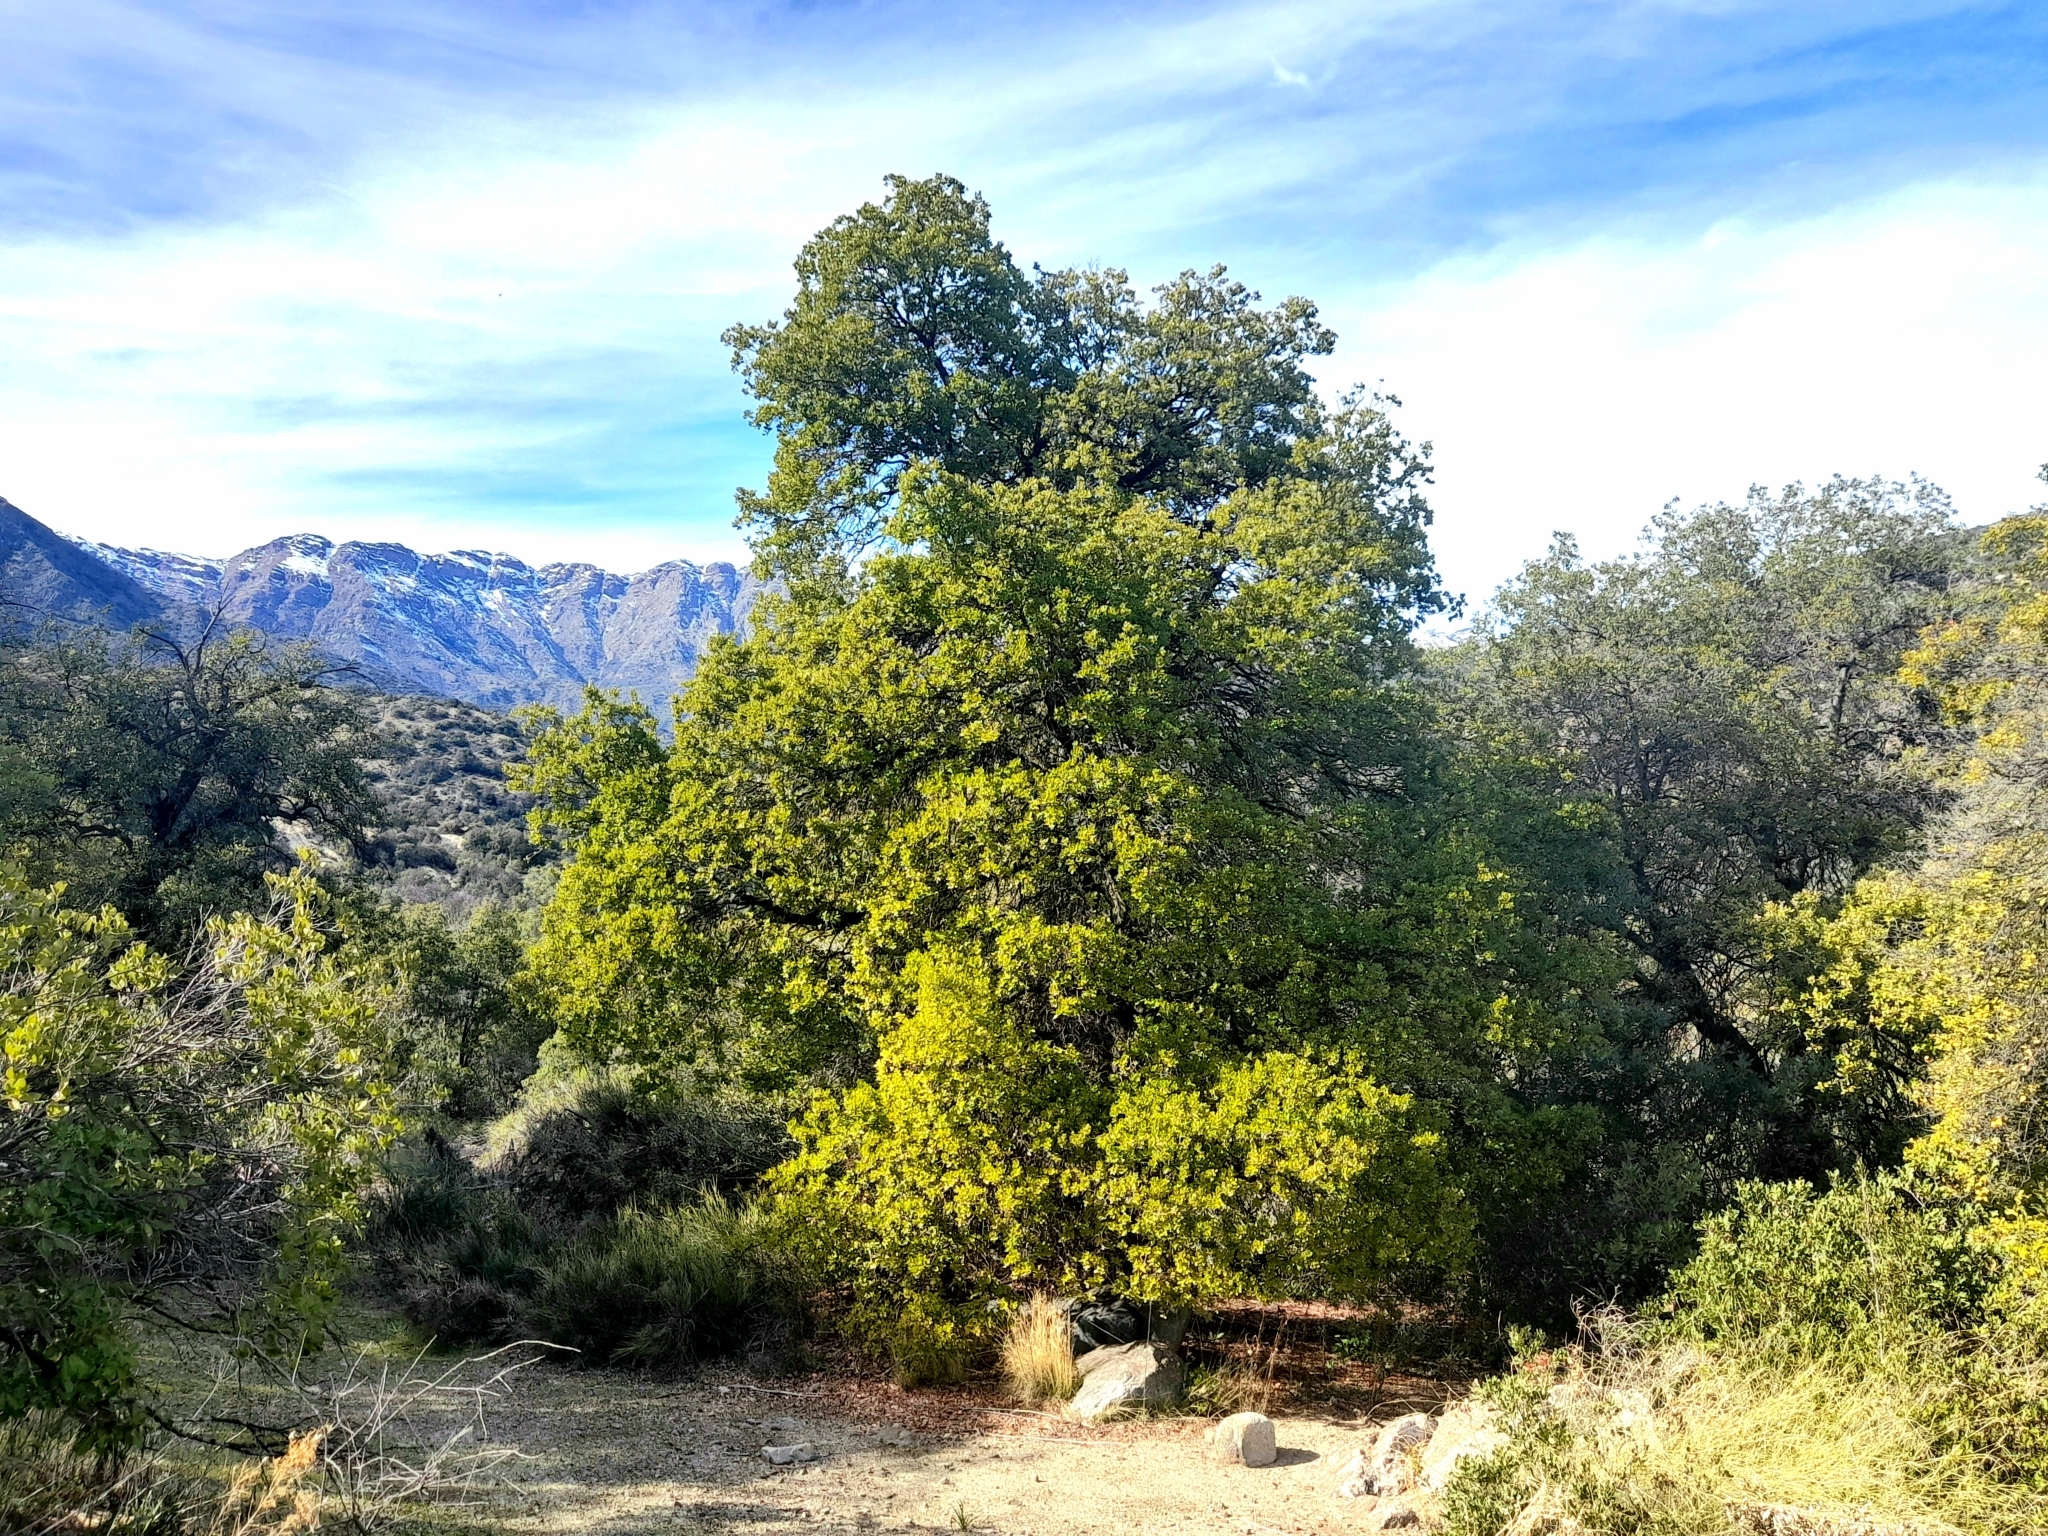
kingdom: Plantae
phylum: Tracheophyta
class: Magnoliopsida
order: Laurales
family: Lauraceae
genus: Cryptocarya
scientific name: Cryptocarya alba
